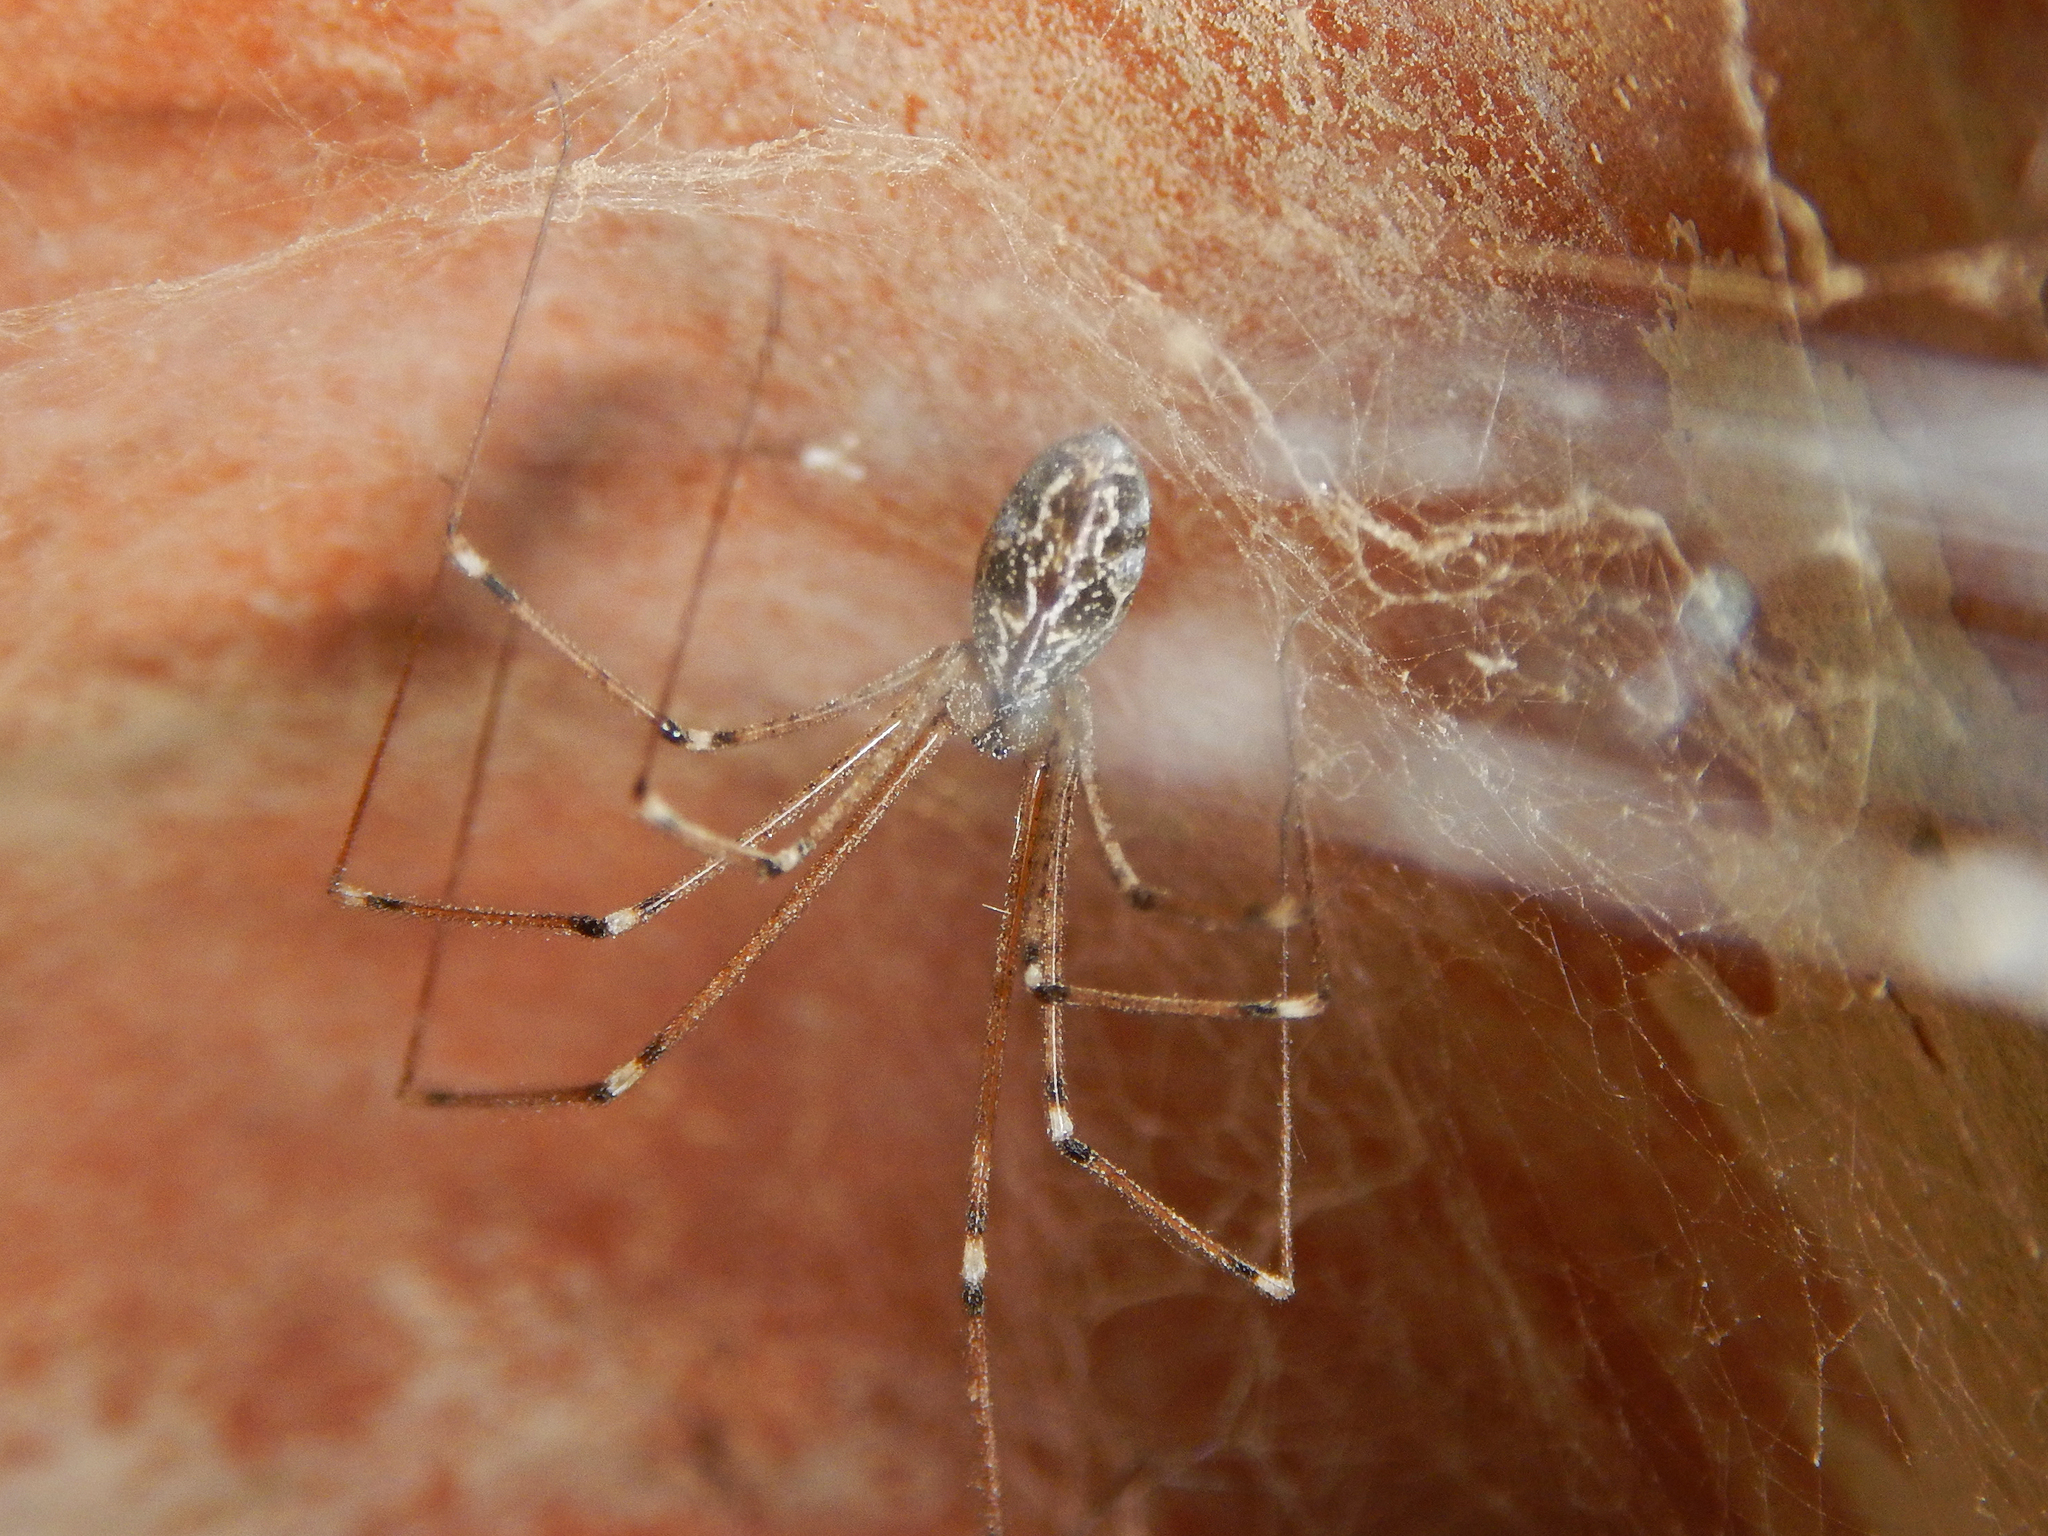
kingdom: Animalia
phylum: Arthropoda
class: Arachnida
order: Araneae
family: Pholcidae
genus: Holocnemus
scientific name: Holocnemus pluchei
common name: Marbled cellar spider
